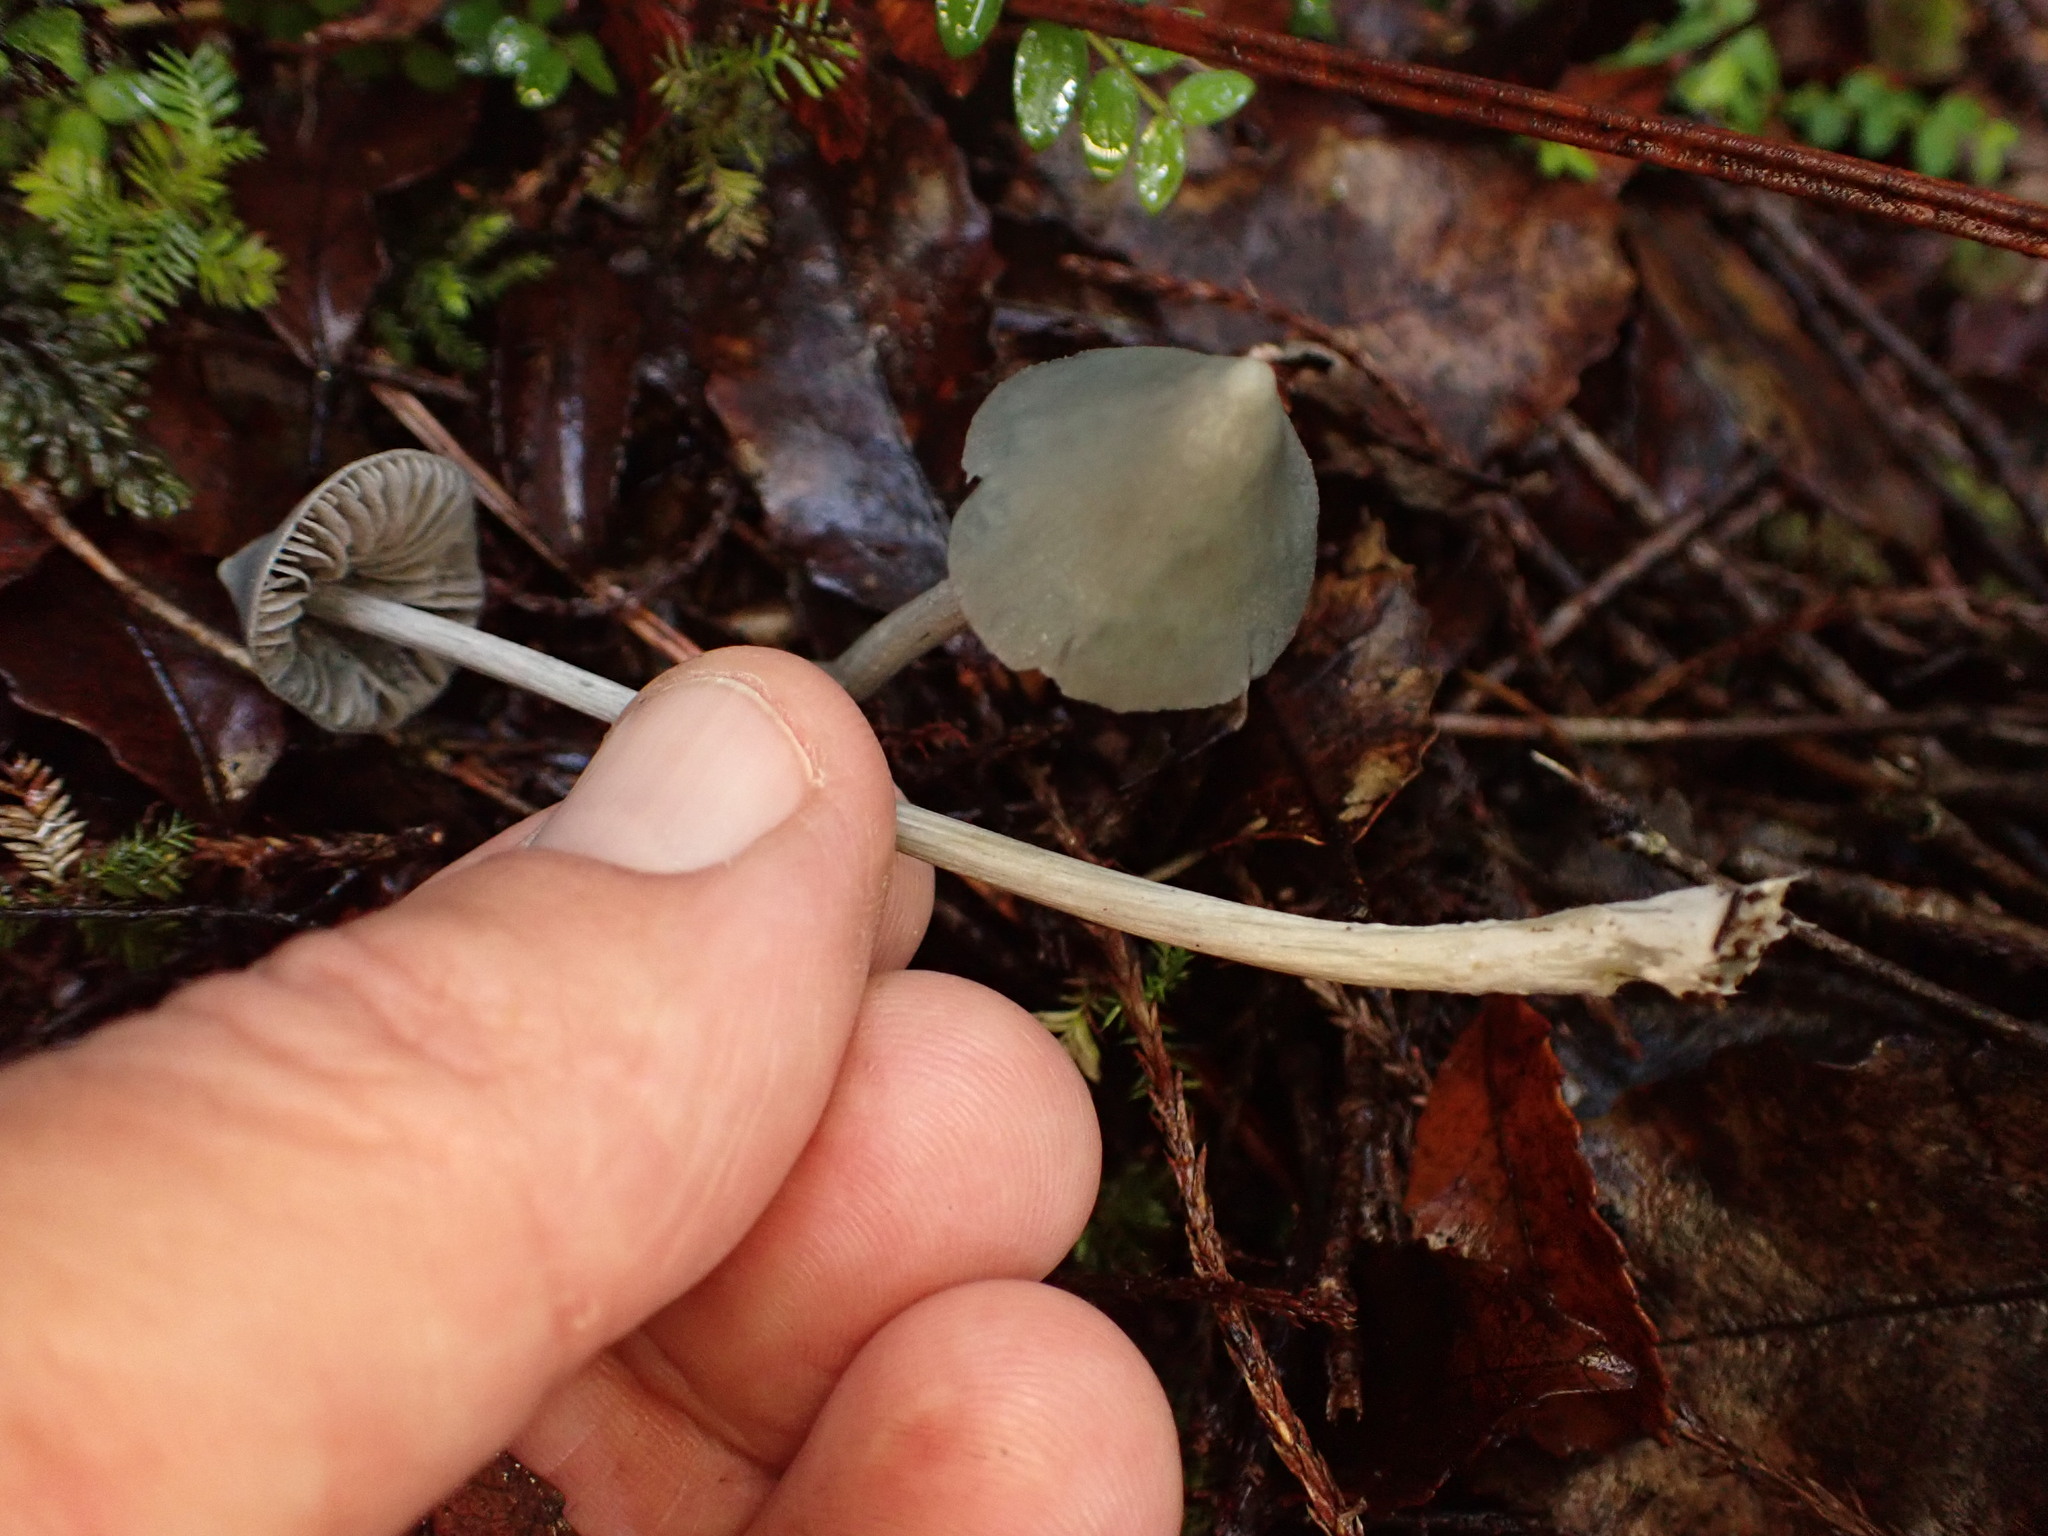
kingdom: Fungi
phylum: Basidiomycota
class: Agaricomycetes
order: Agaricales
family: Entolomataceae
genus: Entoloma
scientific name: Entoloma canoconicum
